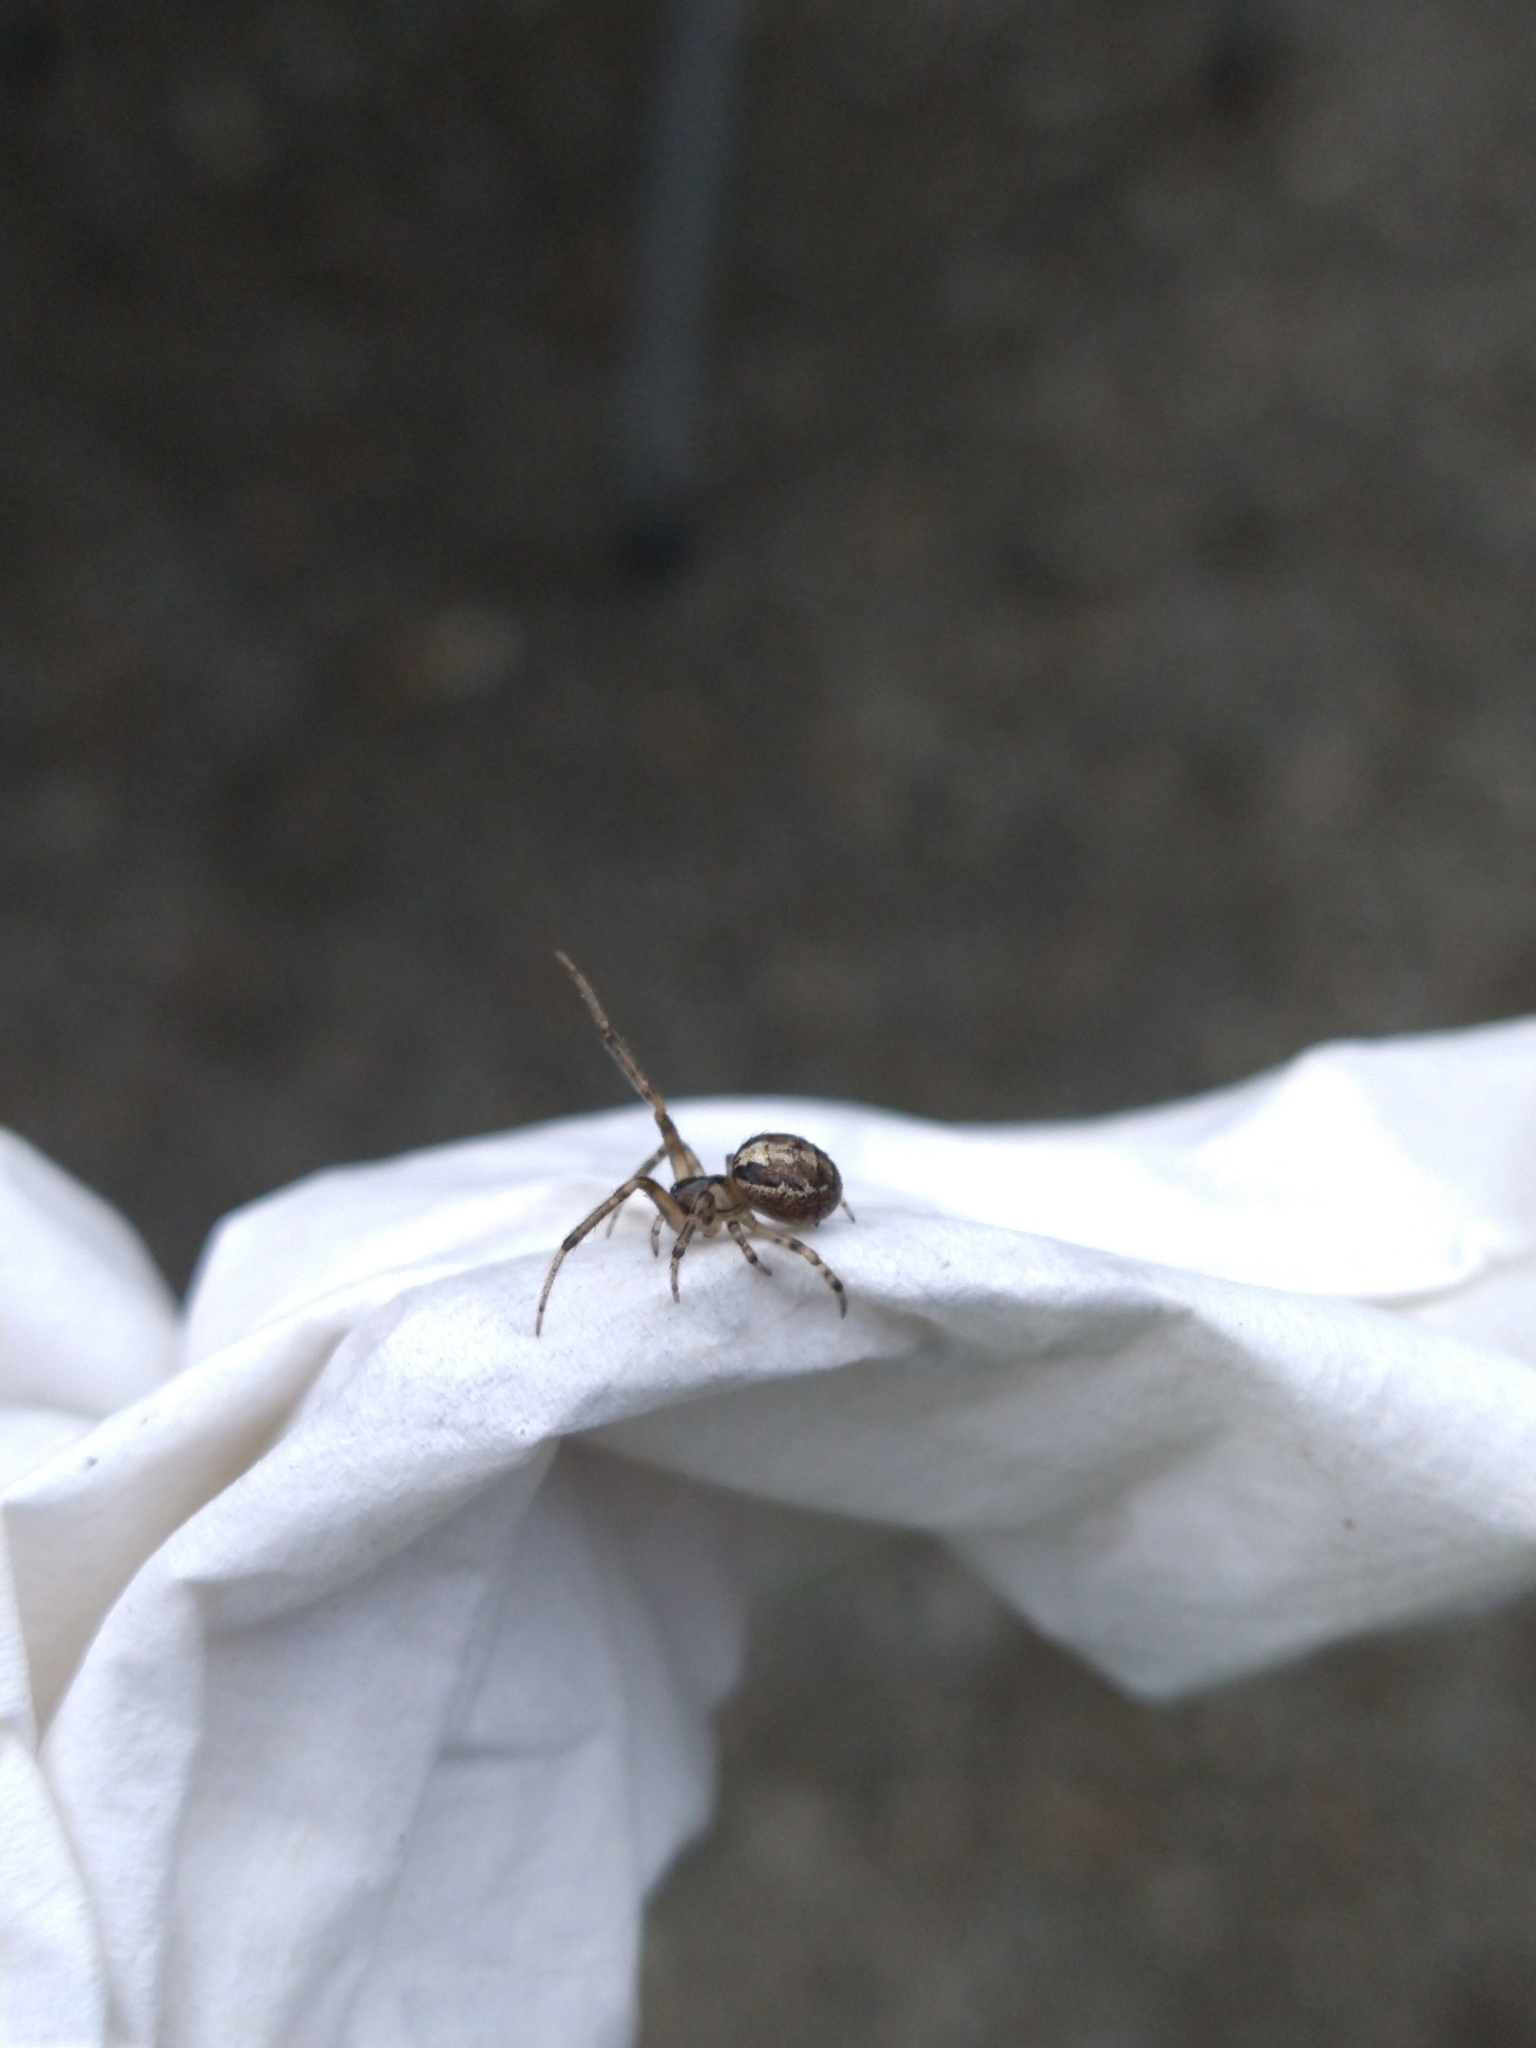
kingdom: Animalia
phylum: Arthropoda
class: Arachnida
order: Araneae
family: Araneidae
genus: Zygiella
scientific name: Zygiella x-notata
